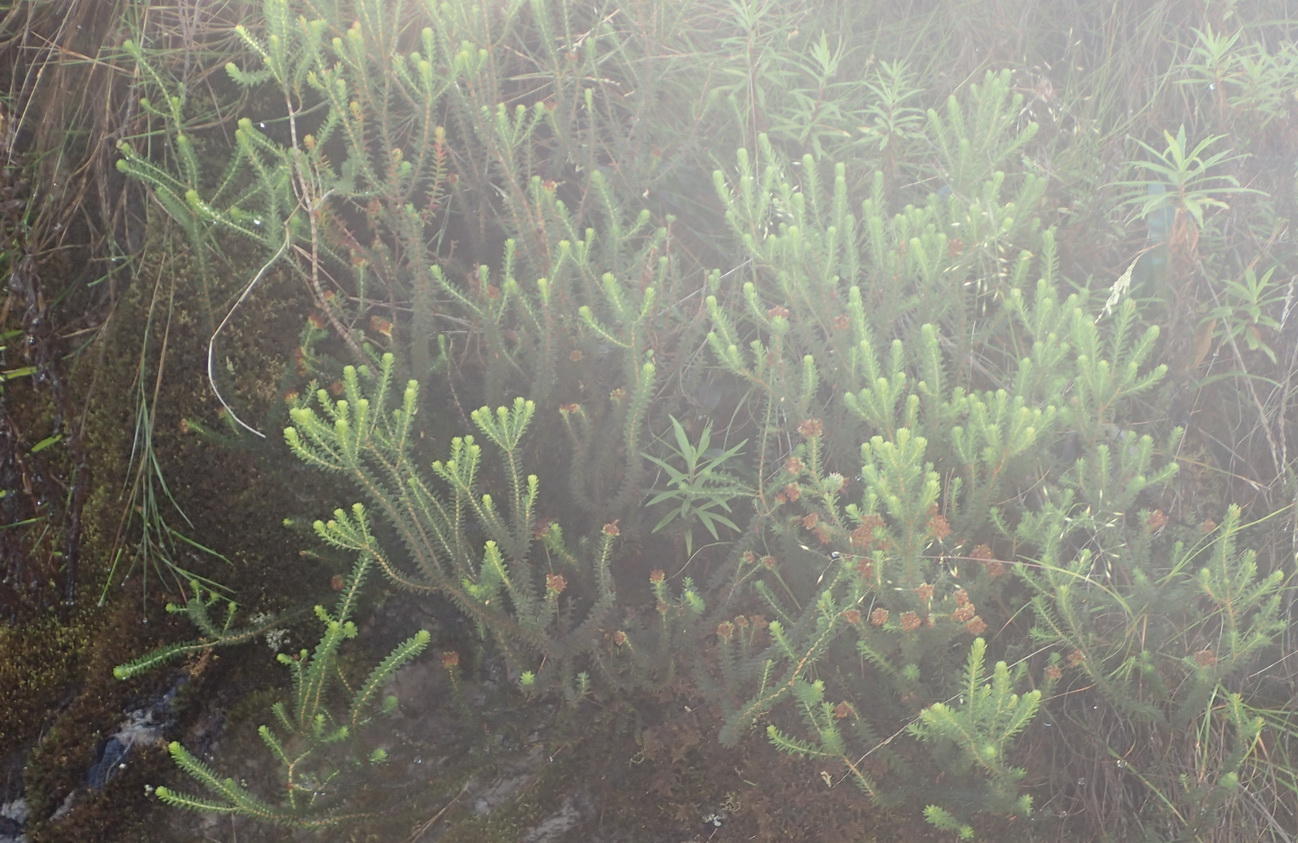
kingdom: Plantae
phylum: Tracheophyta
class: Magnoliopsida
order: Ericales
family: Ericaceae
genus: Erica
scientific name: Erica lehmannii
